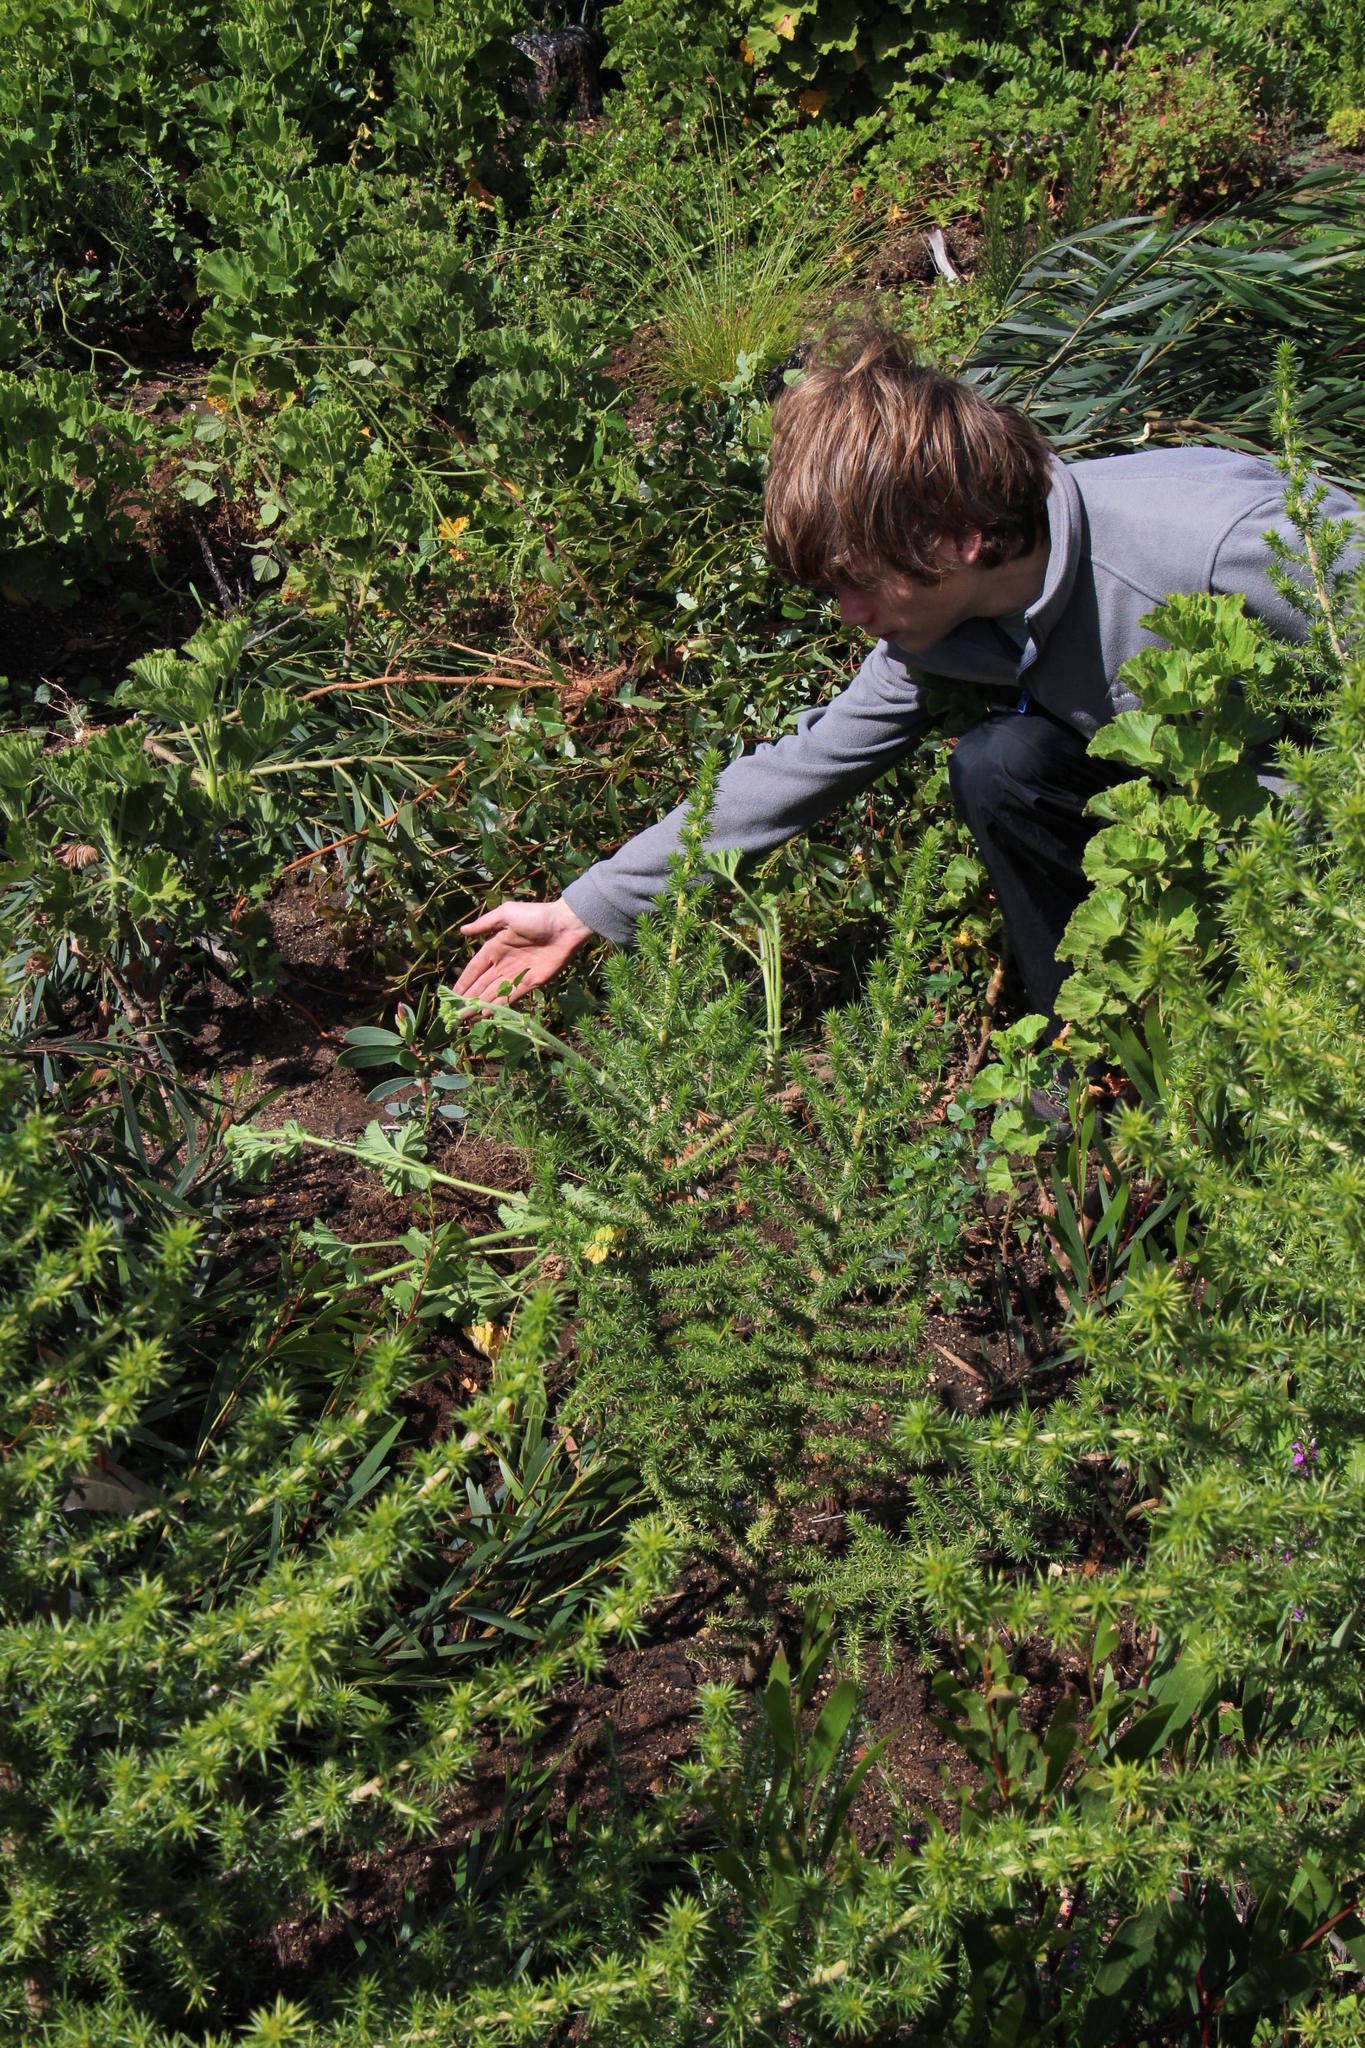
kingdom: Plantae
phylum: Tracheophyta
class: Magnoliopsida
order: Proteales
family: Proteaceae
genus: Protea
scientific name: Protea repens
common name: Sugarbush
